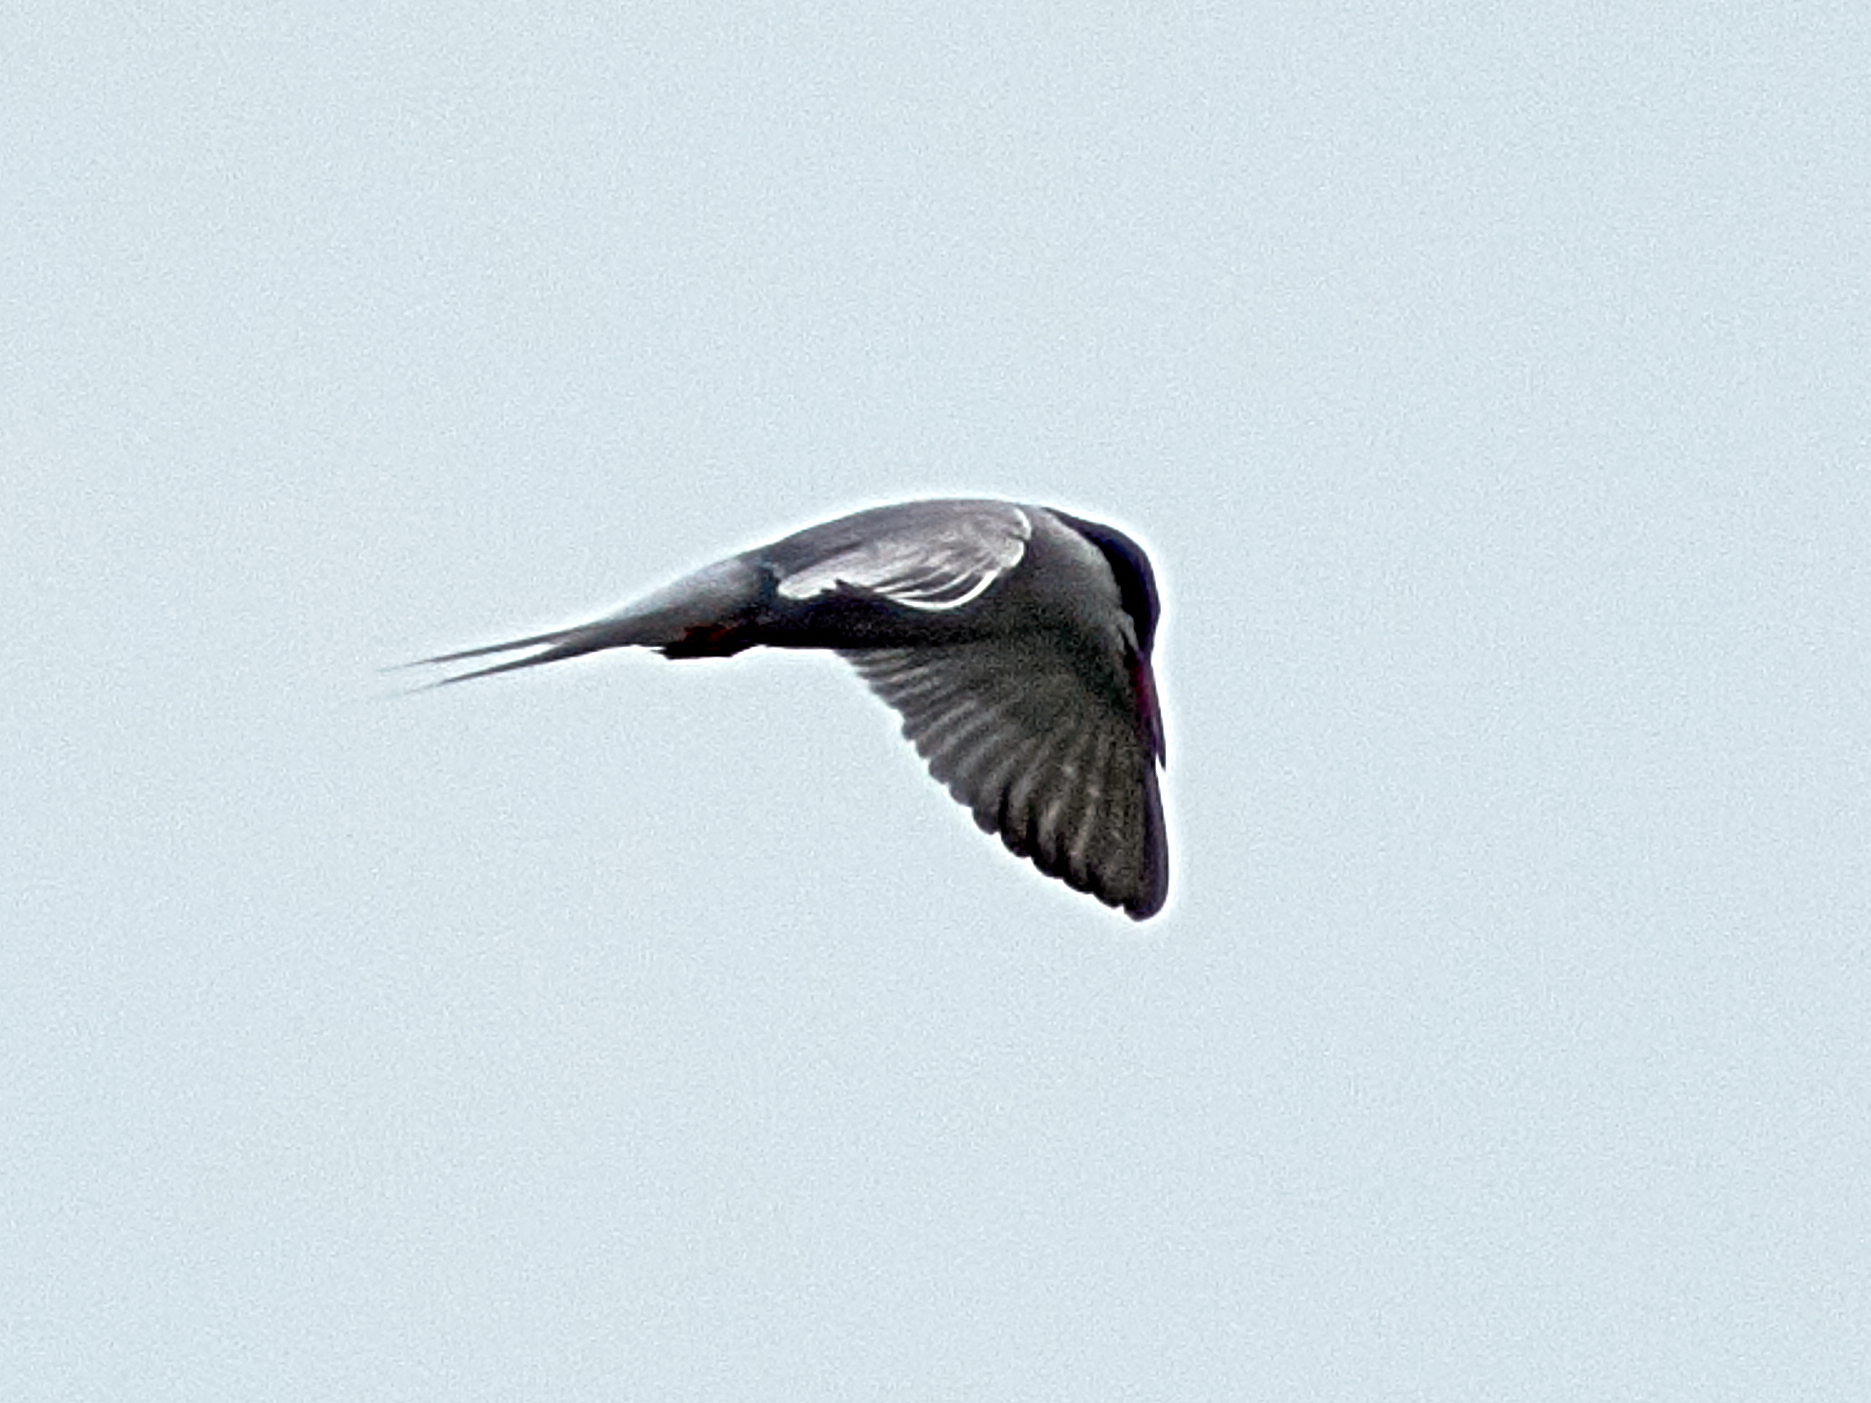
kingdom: Animalia
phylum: Chordata
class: Aves
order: Charadriiformes
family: Laridae
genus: Sterna
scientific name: Sterna hirundo
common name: Common tern
